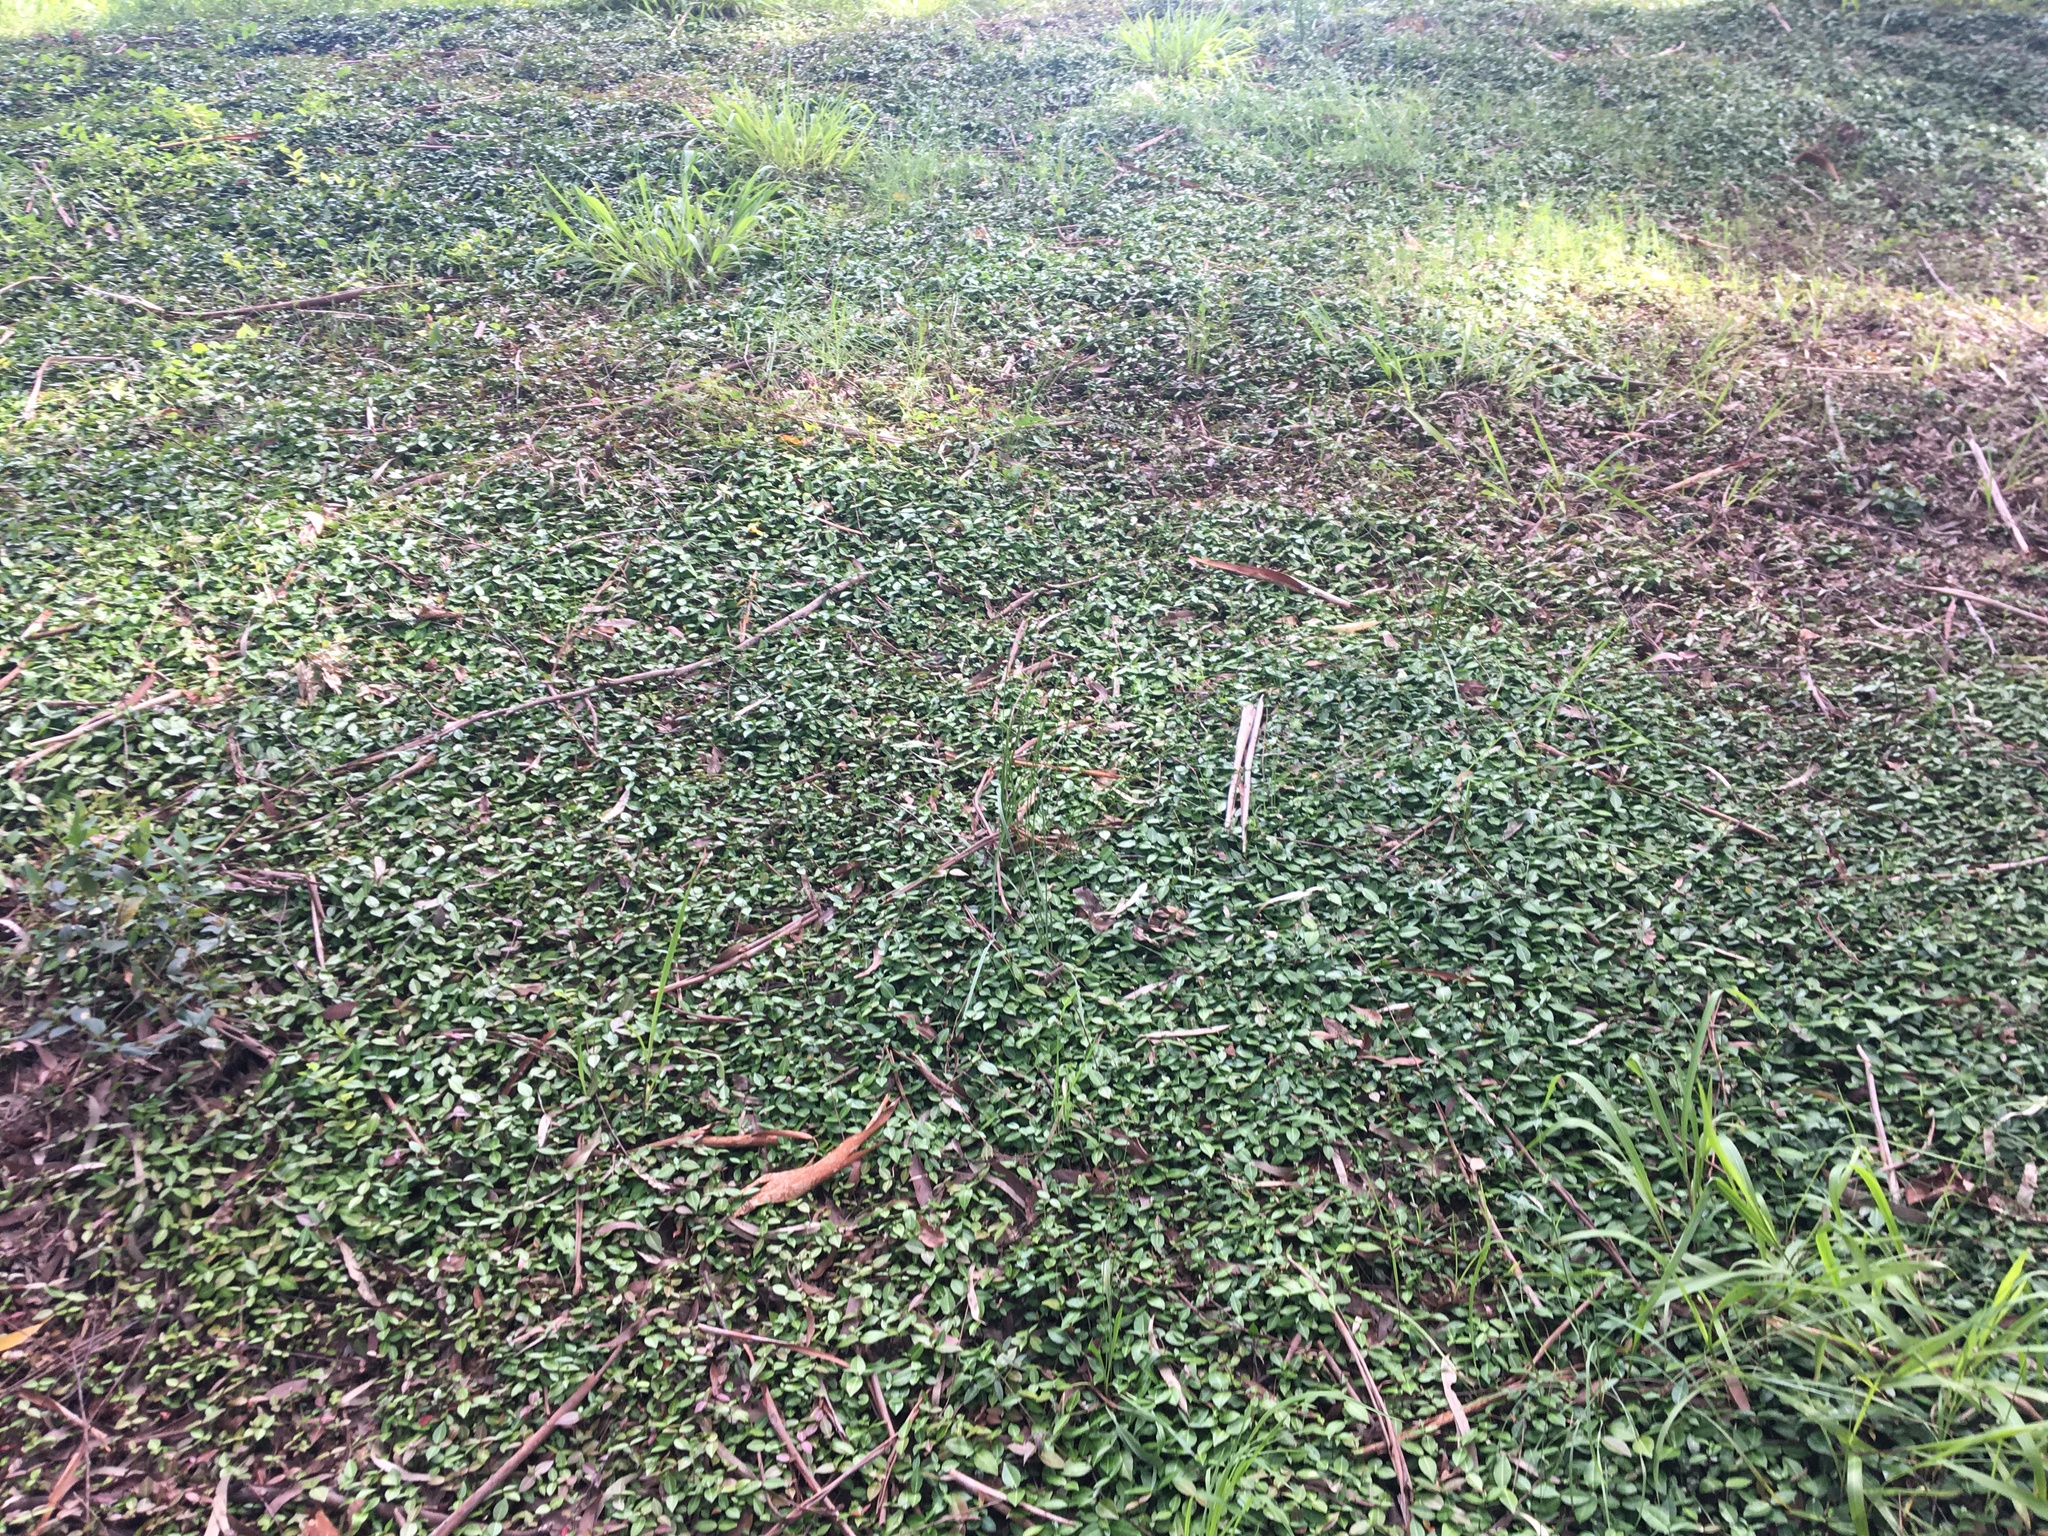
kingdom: Plantae
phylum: Tracheophyta
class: Magnoliopsida
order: Gentianales
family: Apocynaceae
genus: Trachelospermum
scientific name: Trachelospermum asiaticum
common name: Asiatic jasmine
